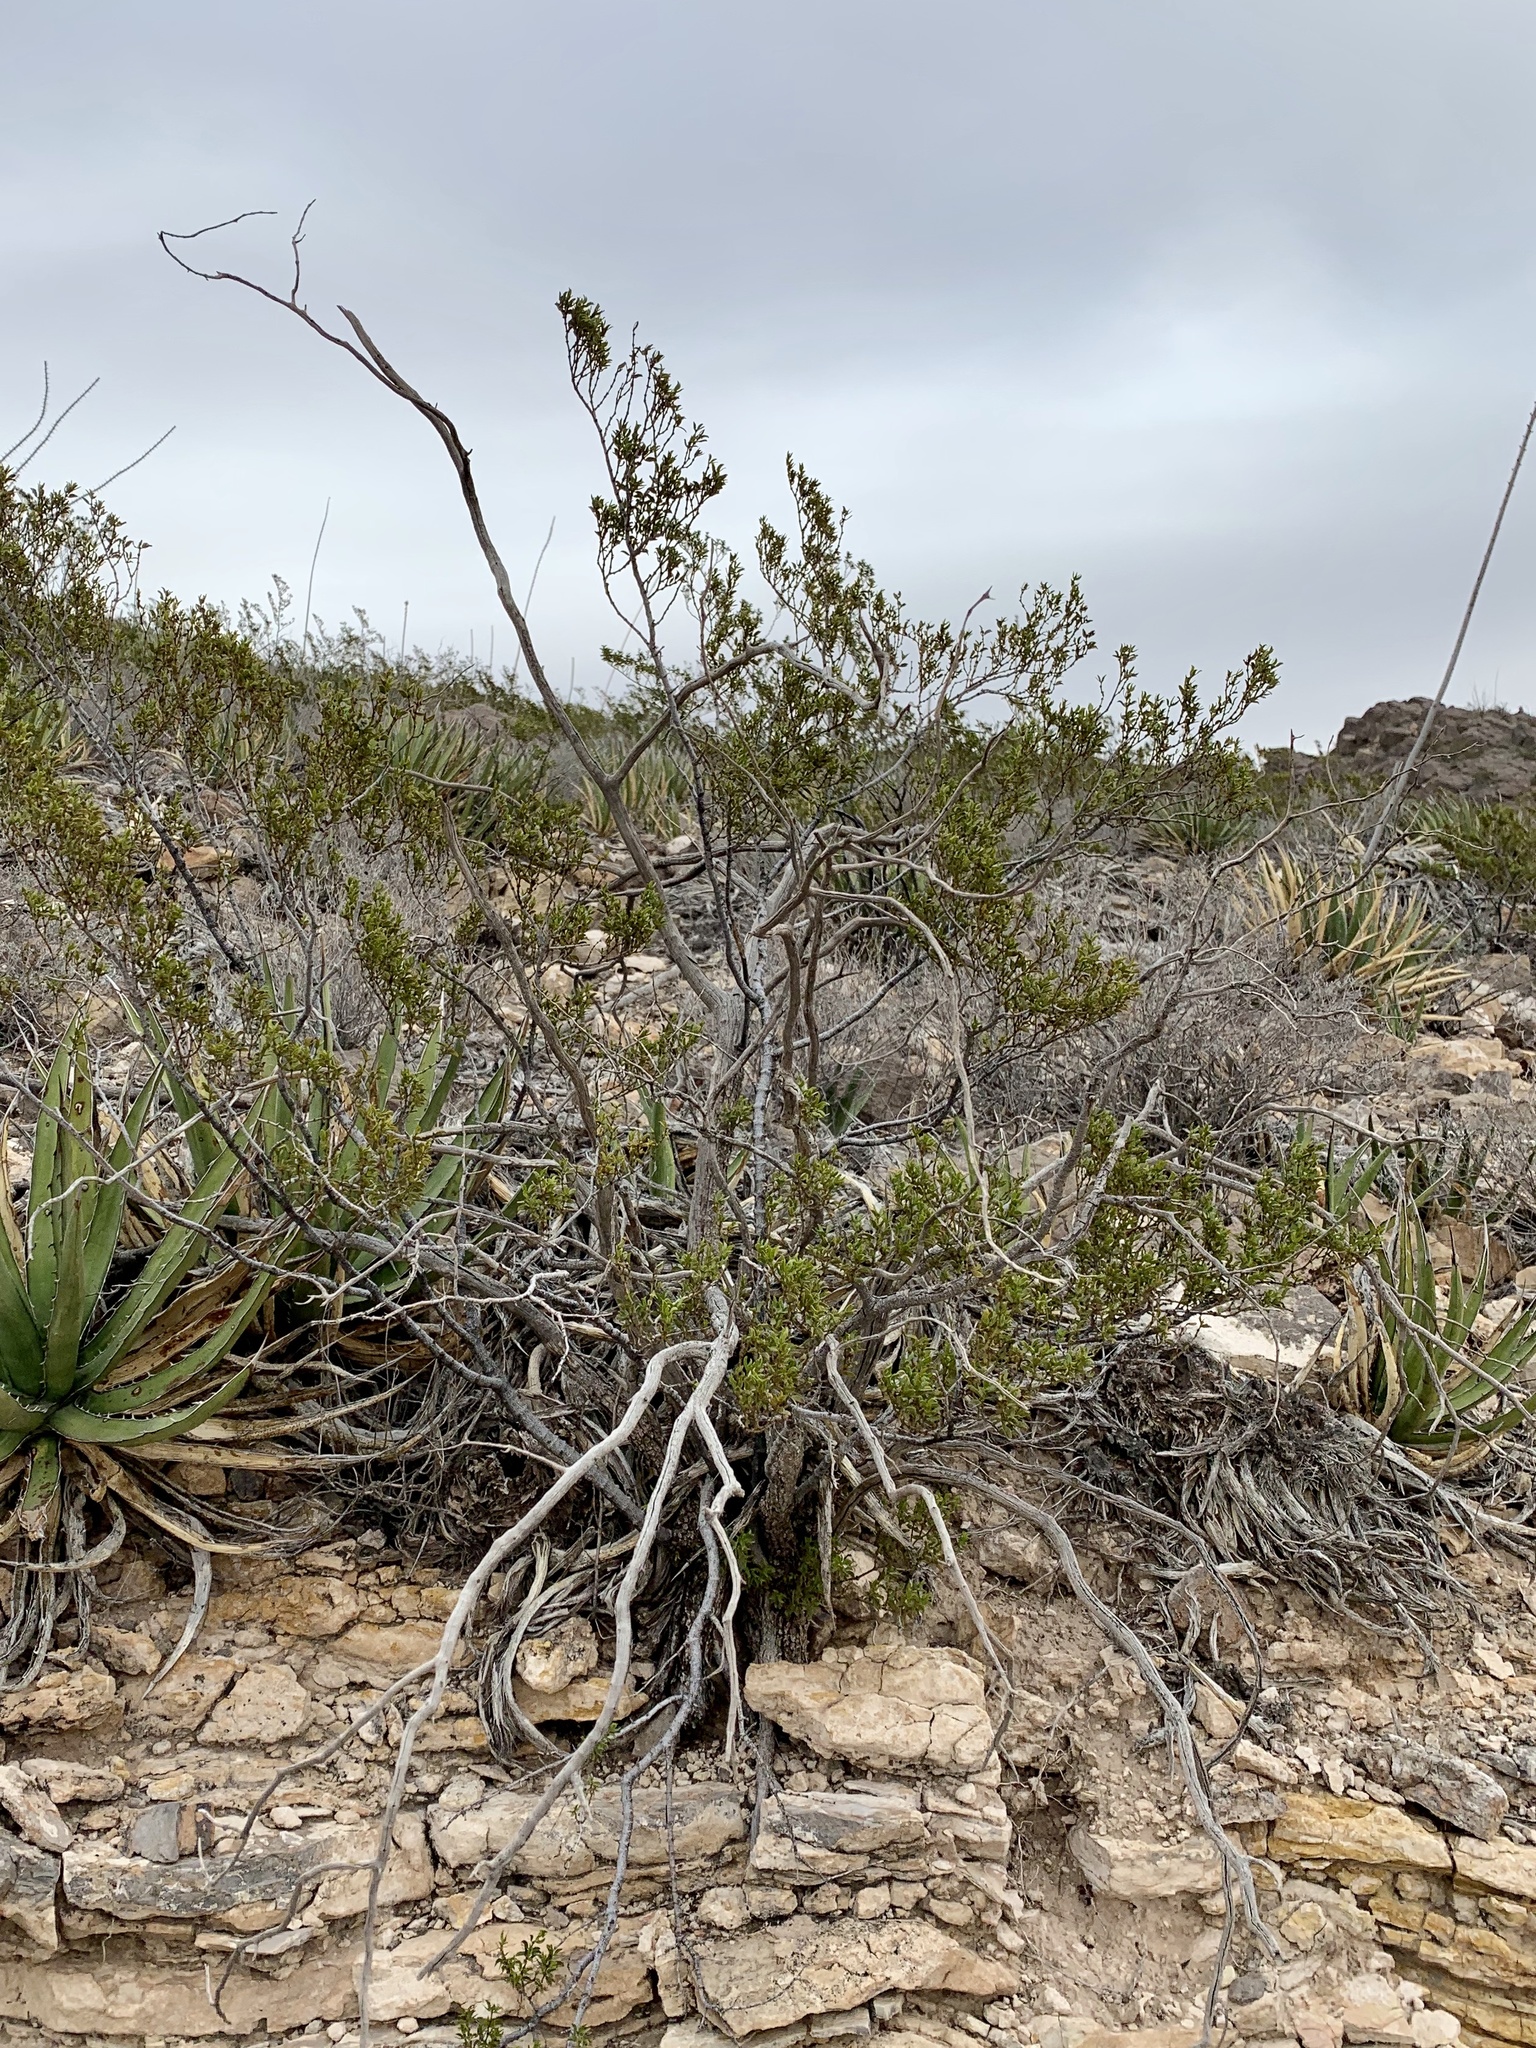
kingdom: Plantae
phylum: Tracheophyta
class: Magnoliopsida
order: Zygophyllales
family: Zygophyllaceae
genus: Larrea
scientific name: Larrea tridentata
